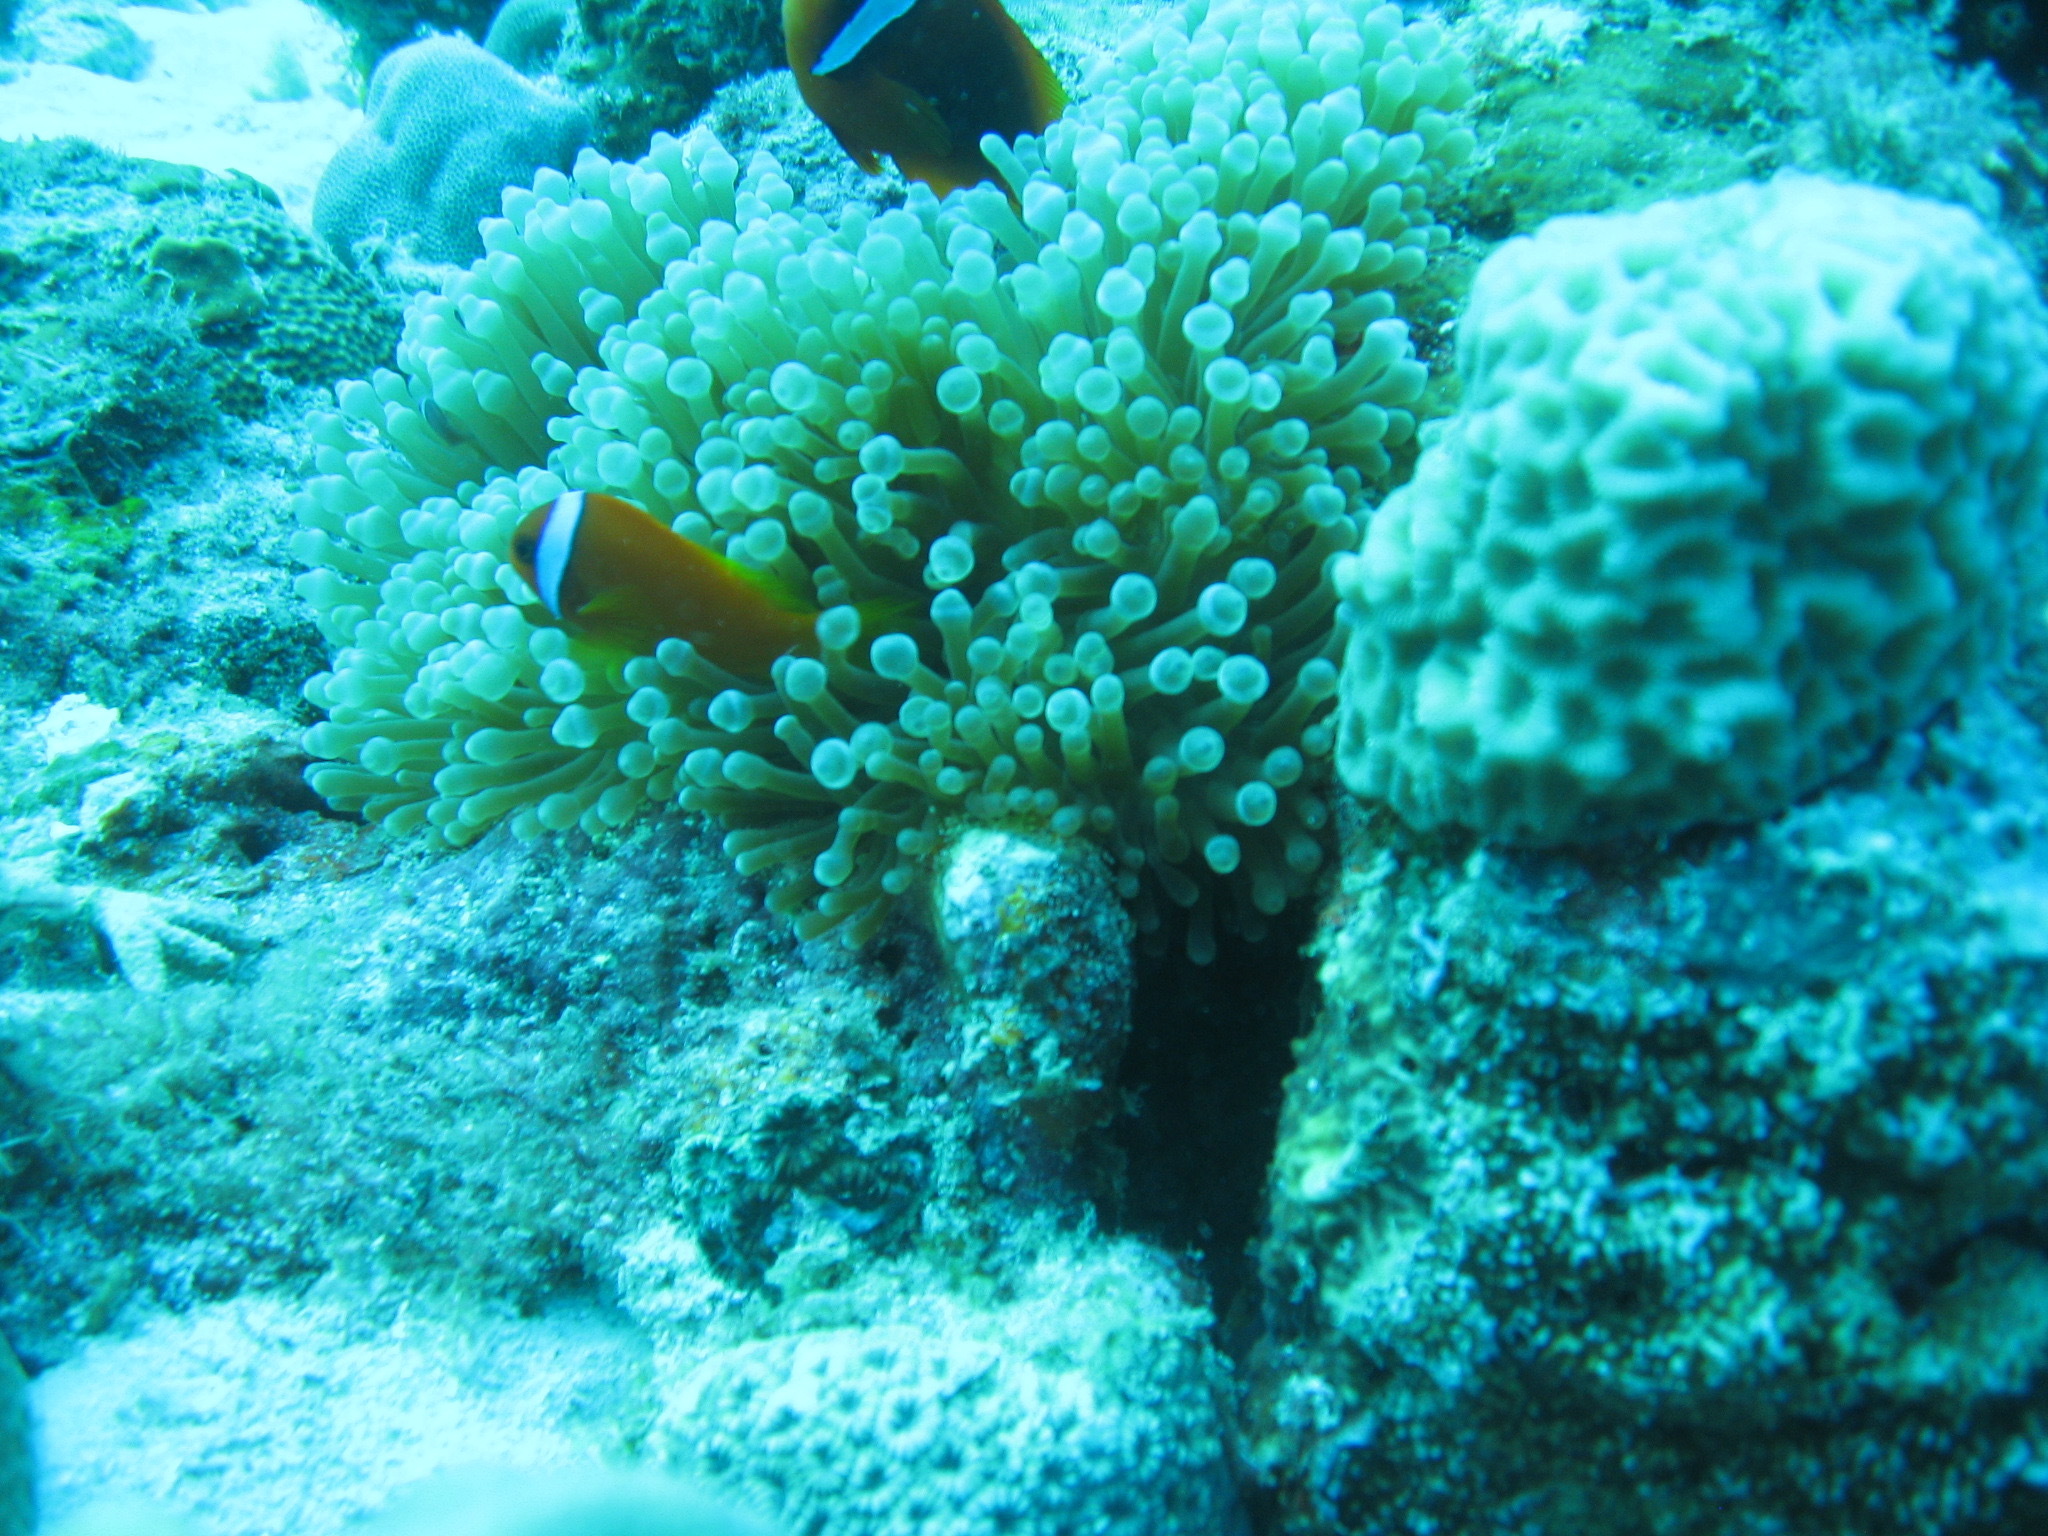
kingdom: Animalia
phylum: Cnidaria
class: Anthozoa
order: Actiniaria
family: Actiniidae
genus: Entacmaea
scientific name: Entacmaea quadricolor
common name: Bulb tentacle sea anemone
